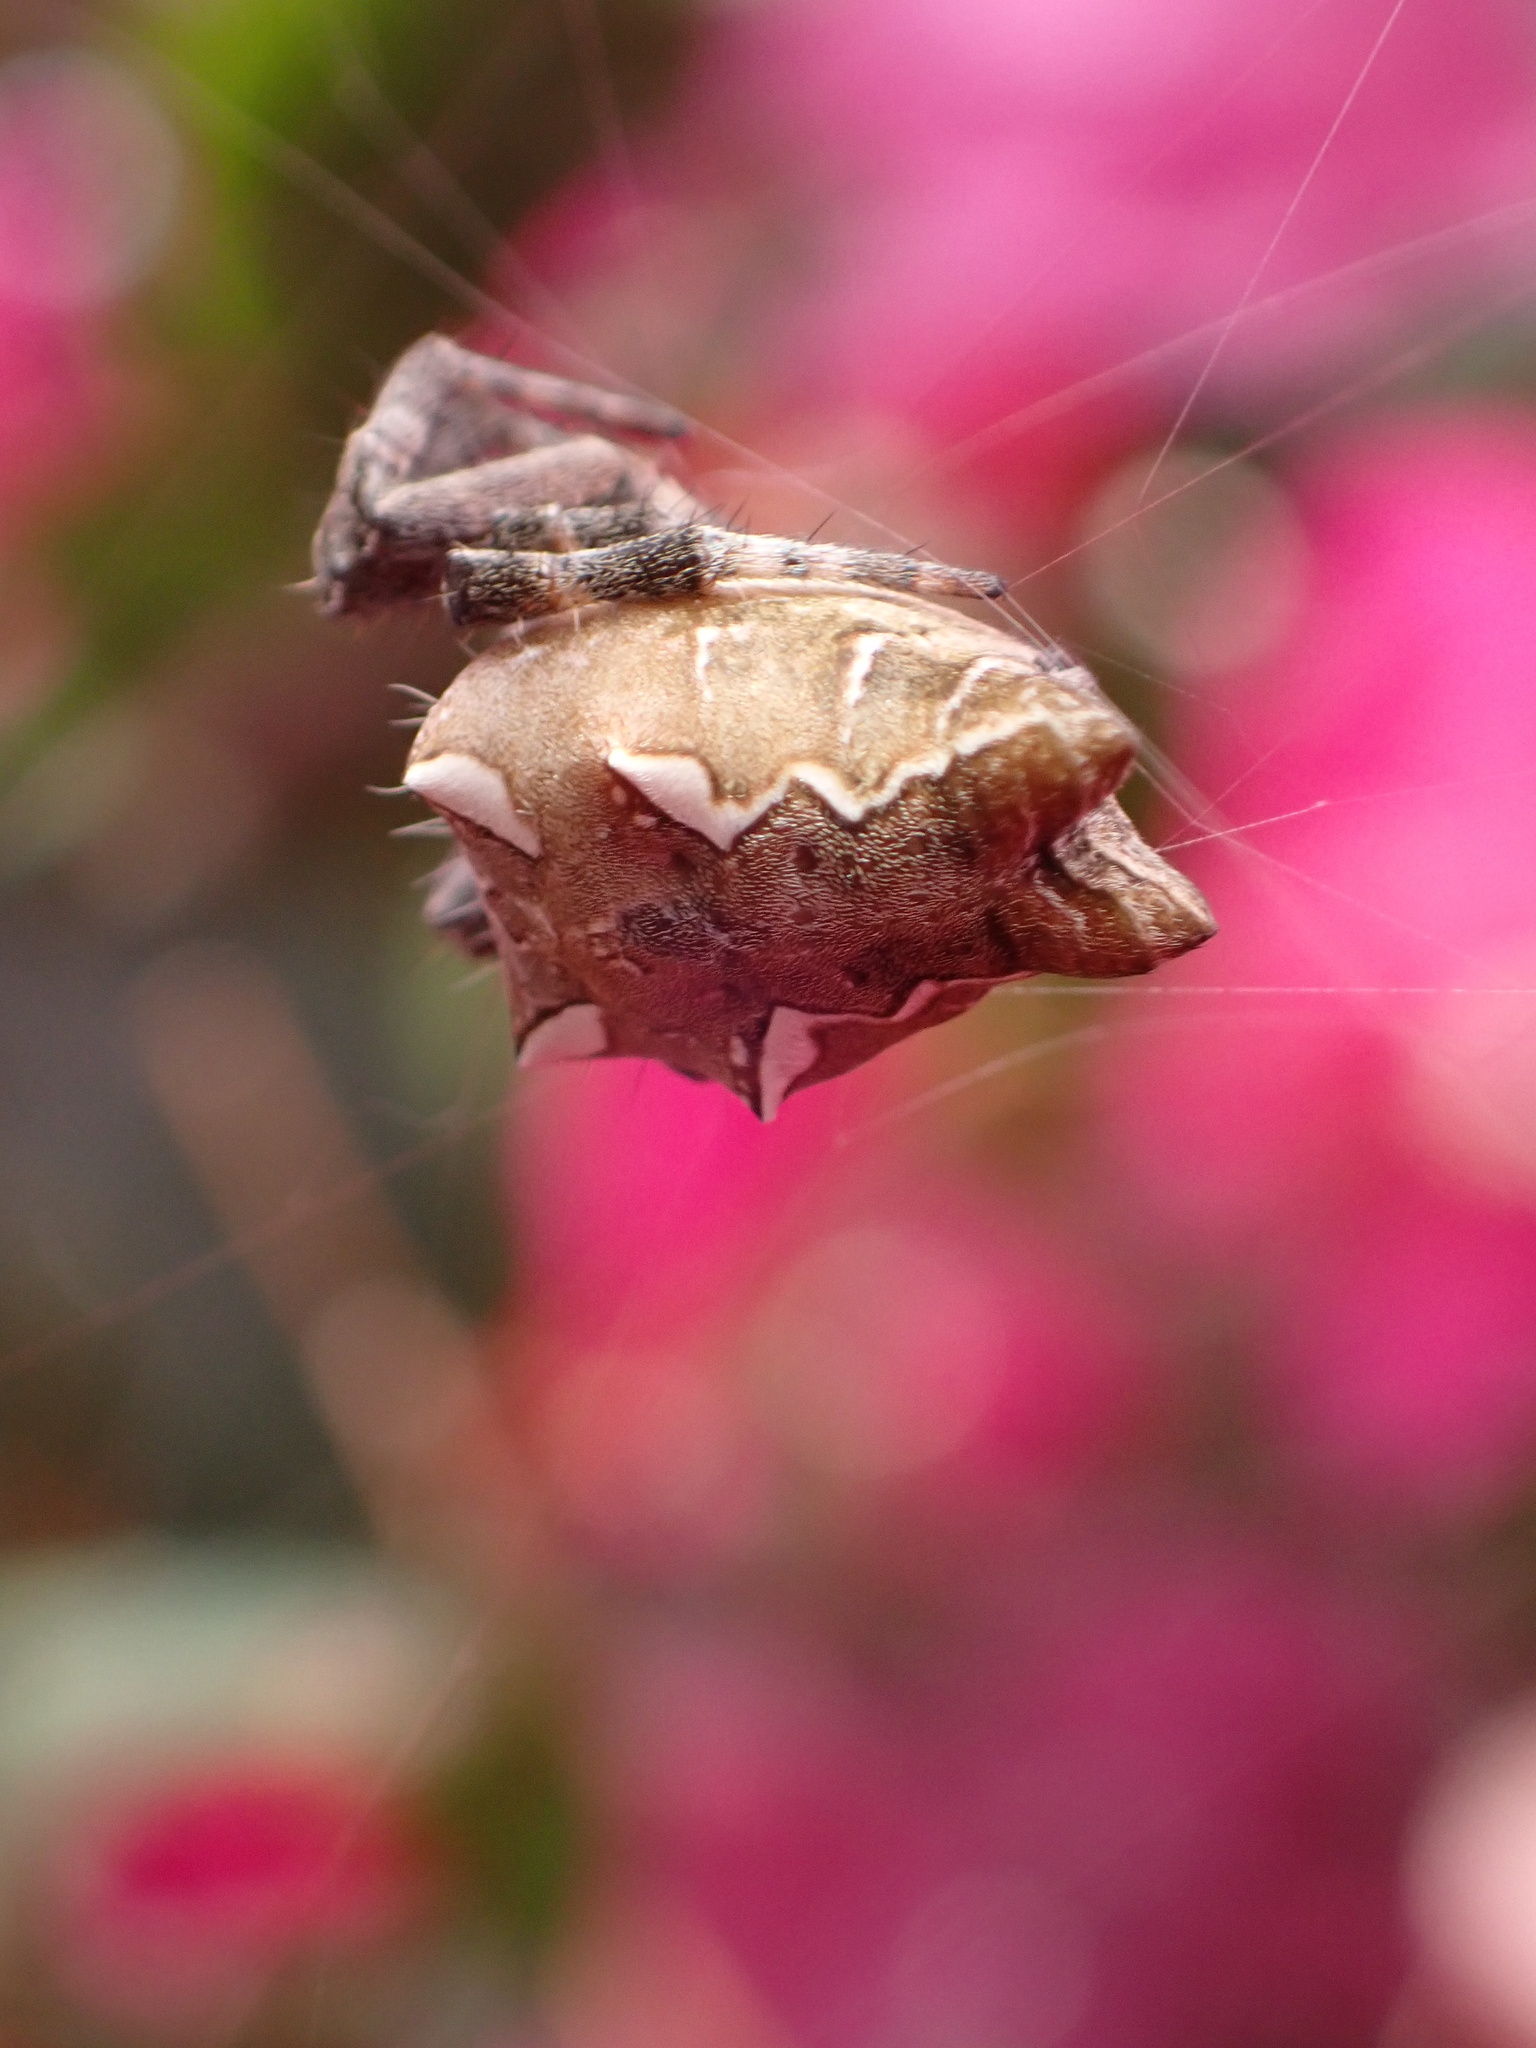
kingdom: Animalia
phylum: Arthropoda
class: Arachnida
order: Araneae
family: Araneidae
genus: Cyrtophora
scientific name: Cyrtophora citricola
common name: Orb weavers
